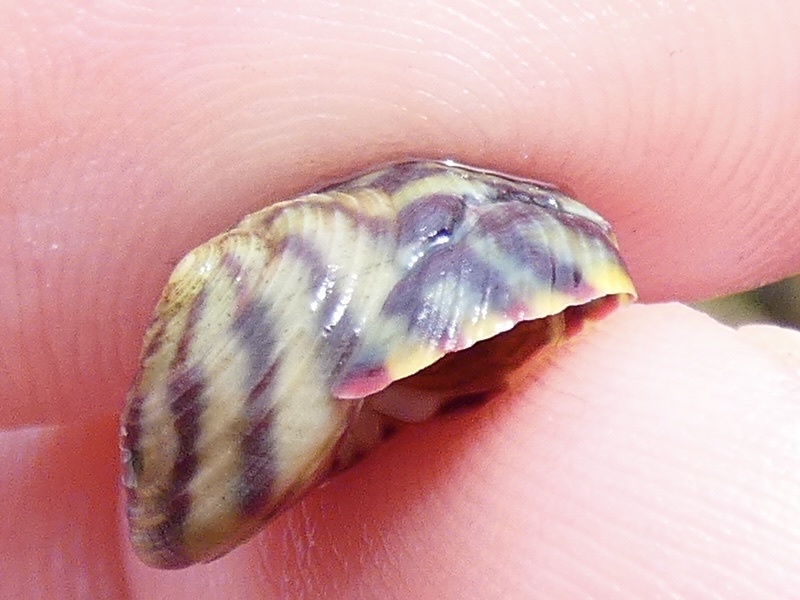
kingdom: Animalia
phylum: Mollusca
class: Gastropoda
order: Trochida
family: Trochidae
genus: Steromphala
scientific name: Steromphala umbilicalis
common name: Flat top shell
